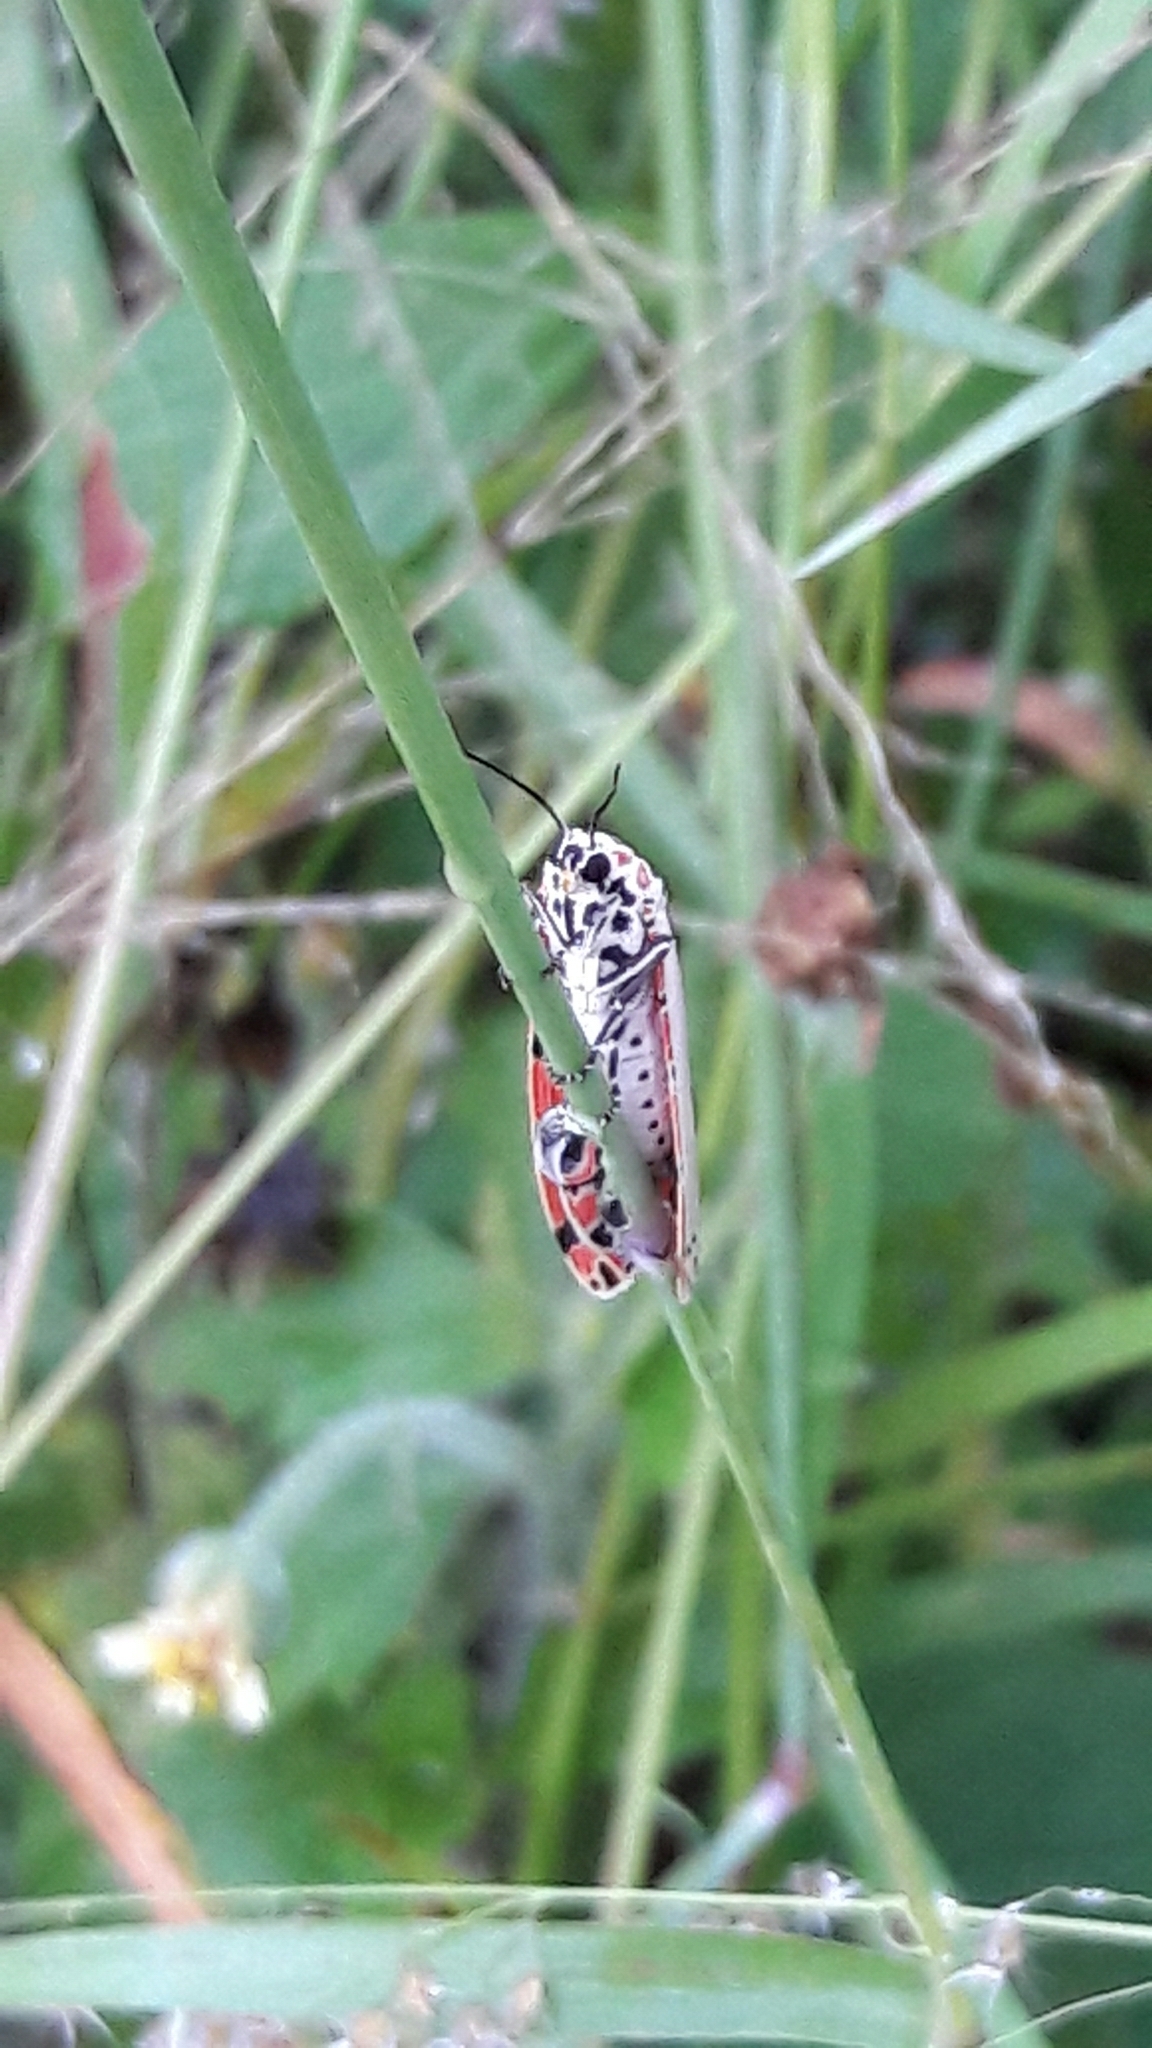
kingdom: Animalia
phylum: Arthropoda
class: Insecta
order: Lepidoptera
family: Erebidae
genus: Utetheisa
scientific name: Utetheisa ornatrix
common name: Beautiful utetheisa
